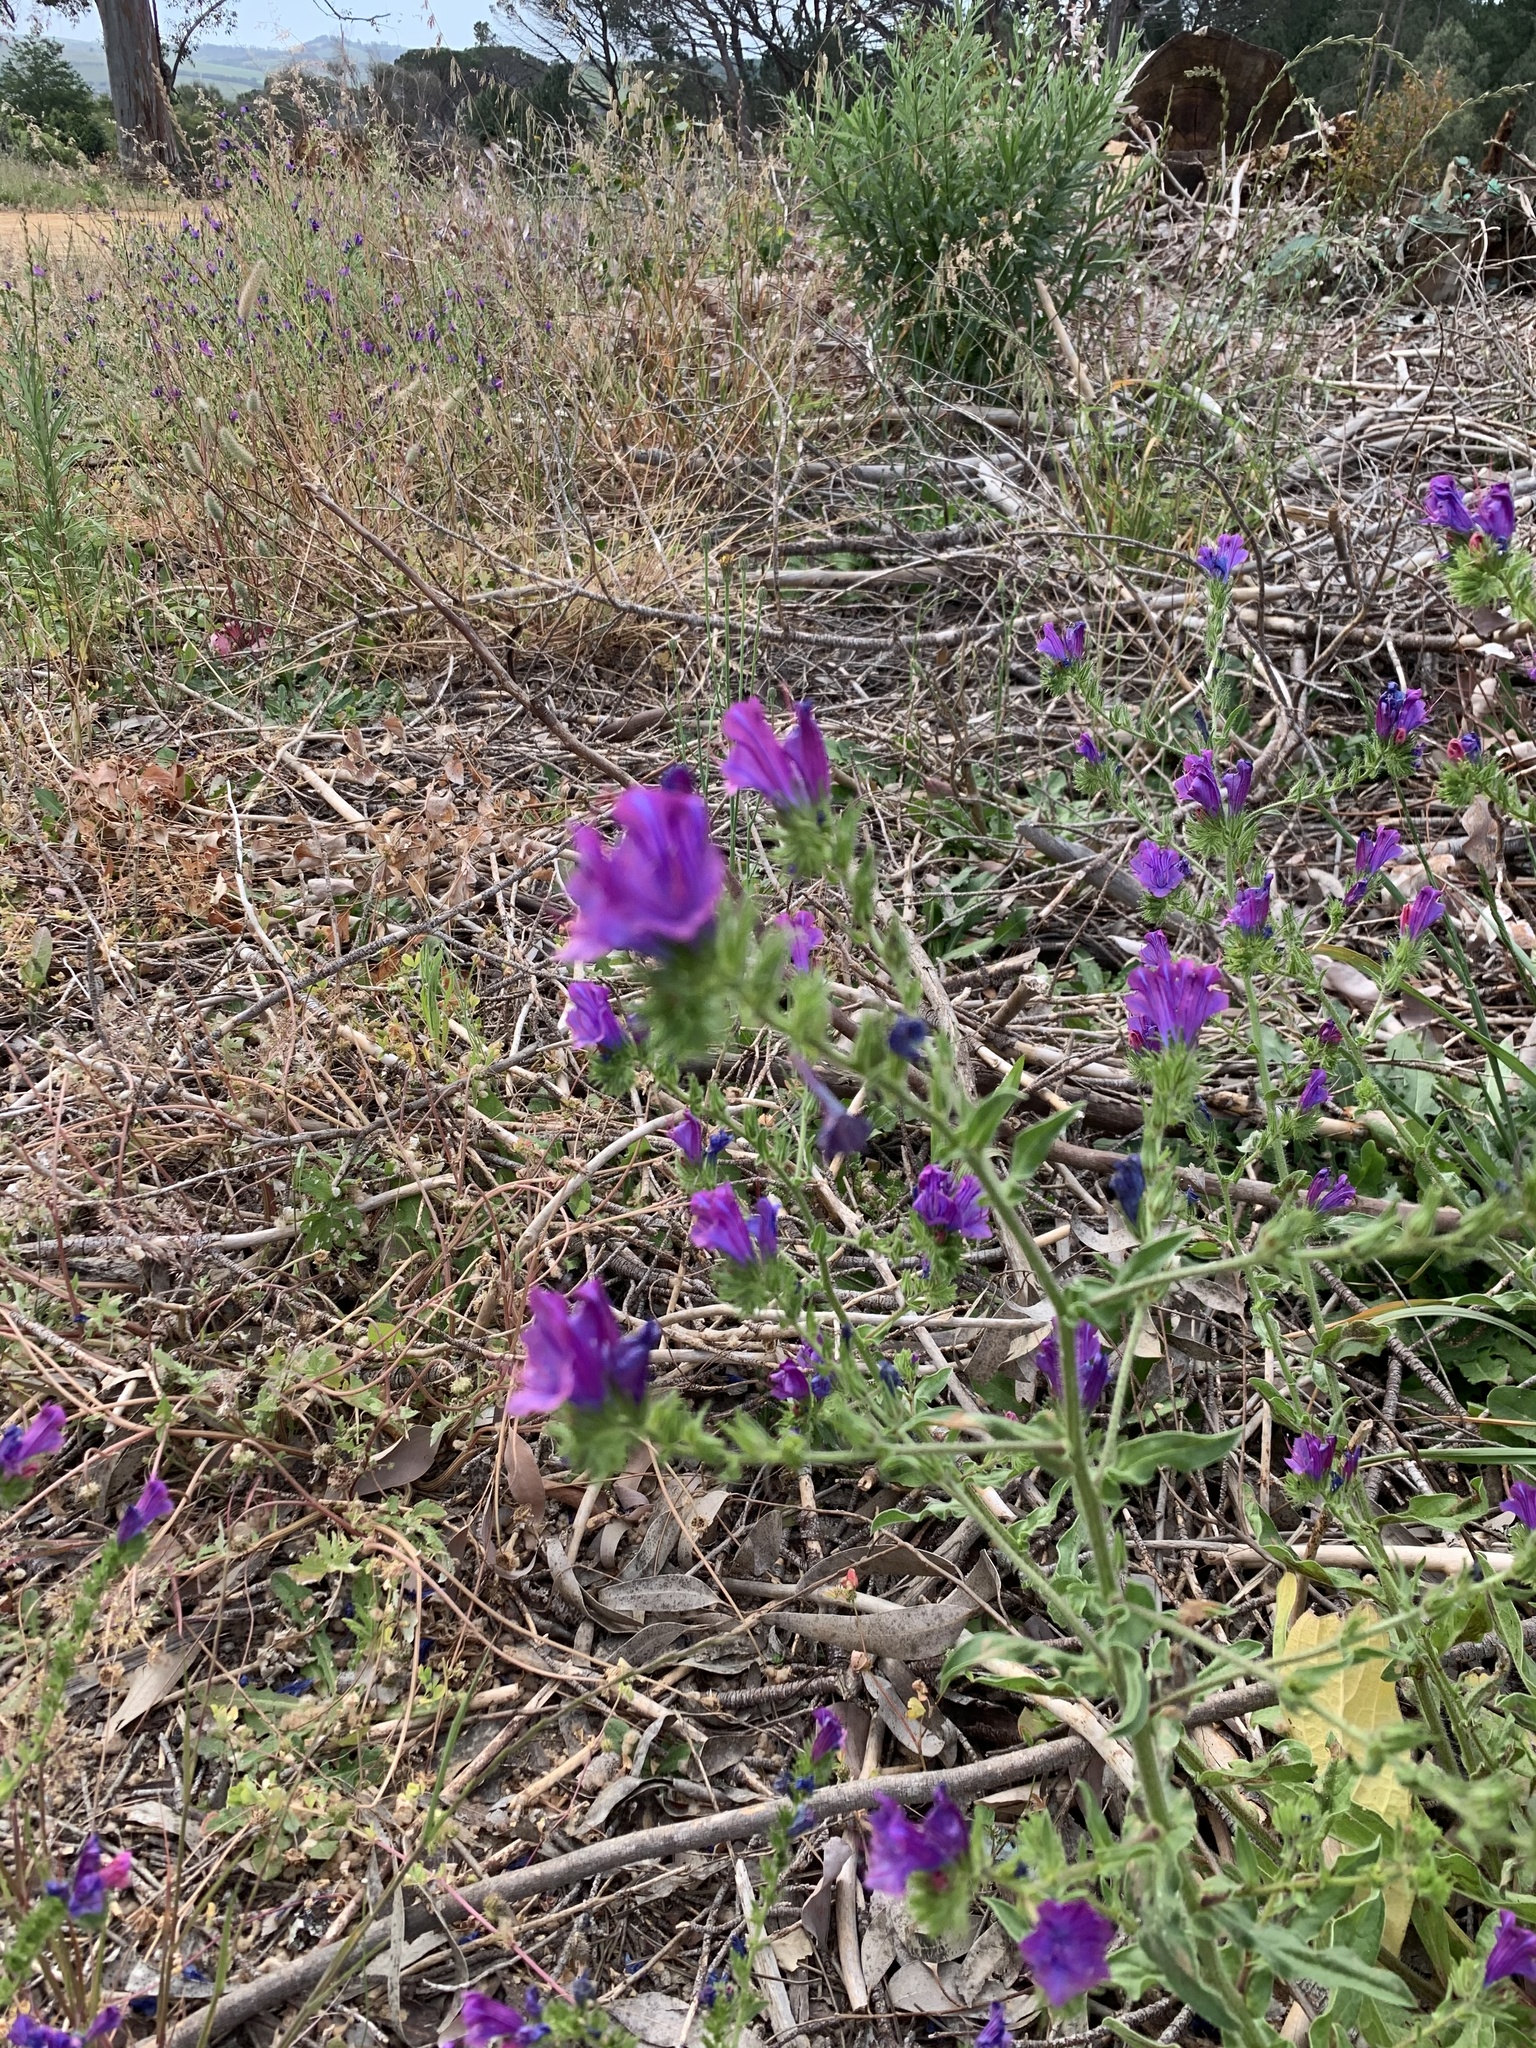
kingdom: Plantae
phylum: Tracheophyta
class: Magnoliopsida
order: Boraginales
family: Boraginaceae
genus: Echium
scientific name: Echium plantagineum
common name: Purple viper's-bugloss
